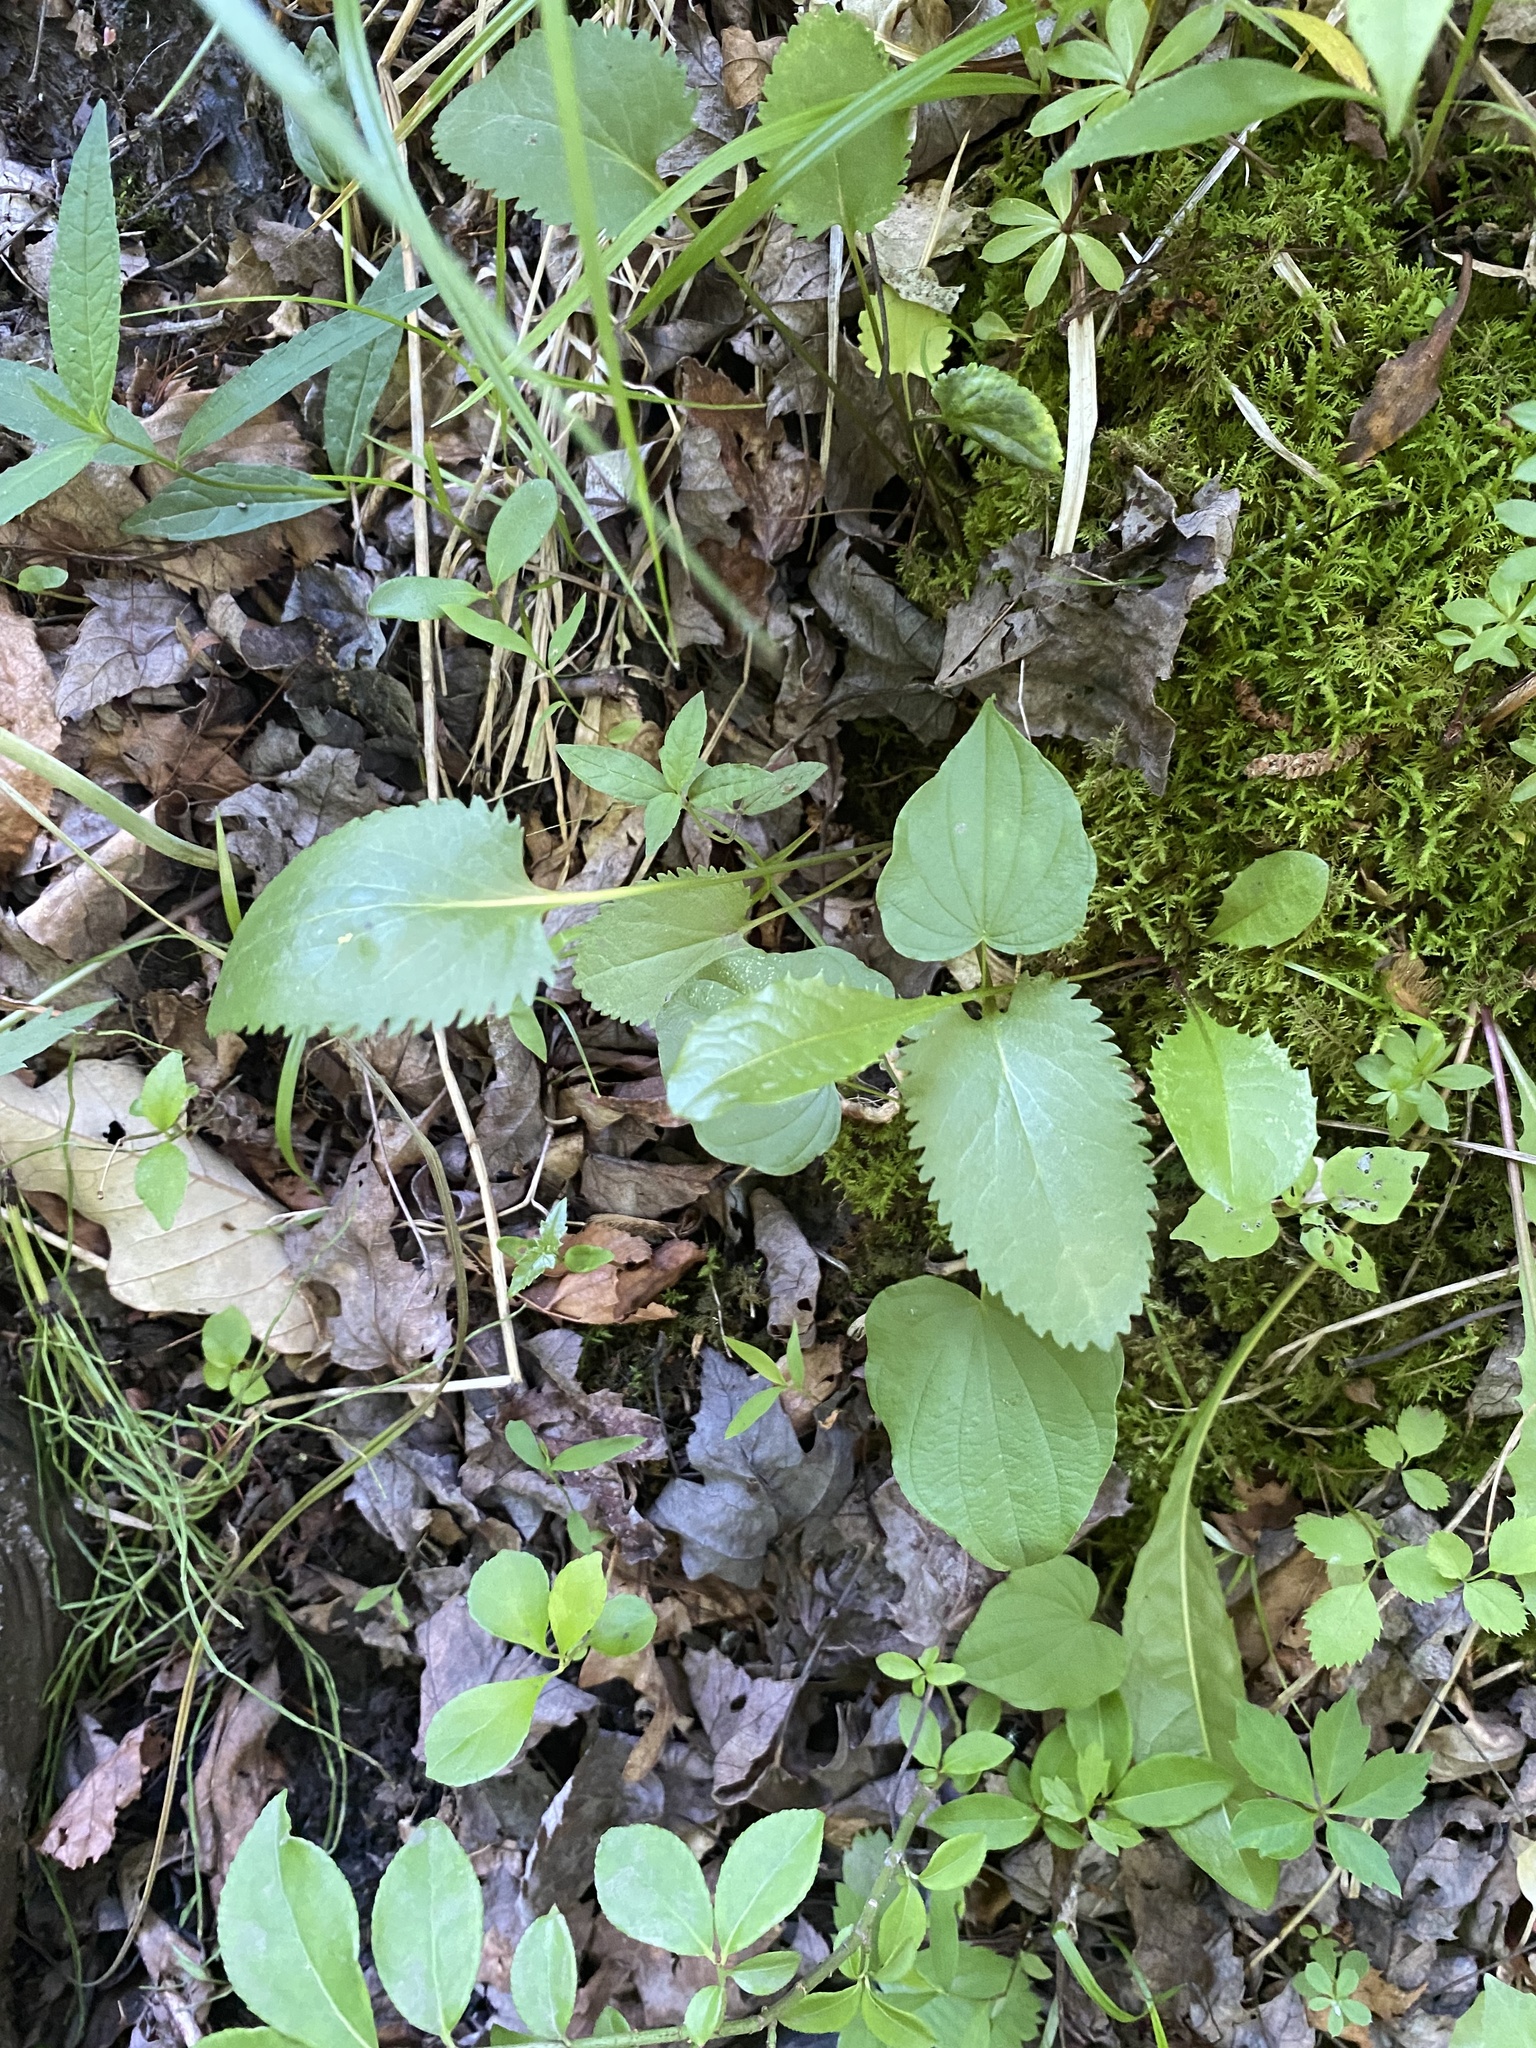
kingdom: Plantae
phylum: Tracheophyta
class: Magnoliopsida
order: Asterales
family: Asteraceae
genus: Packera
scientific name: Packera aurea
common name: Golden groundsel
